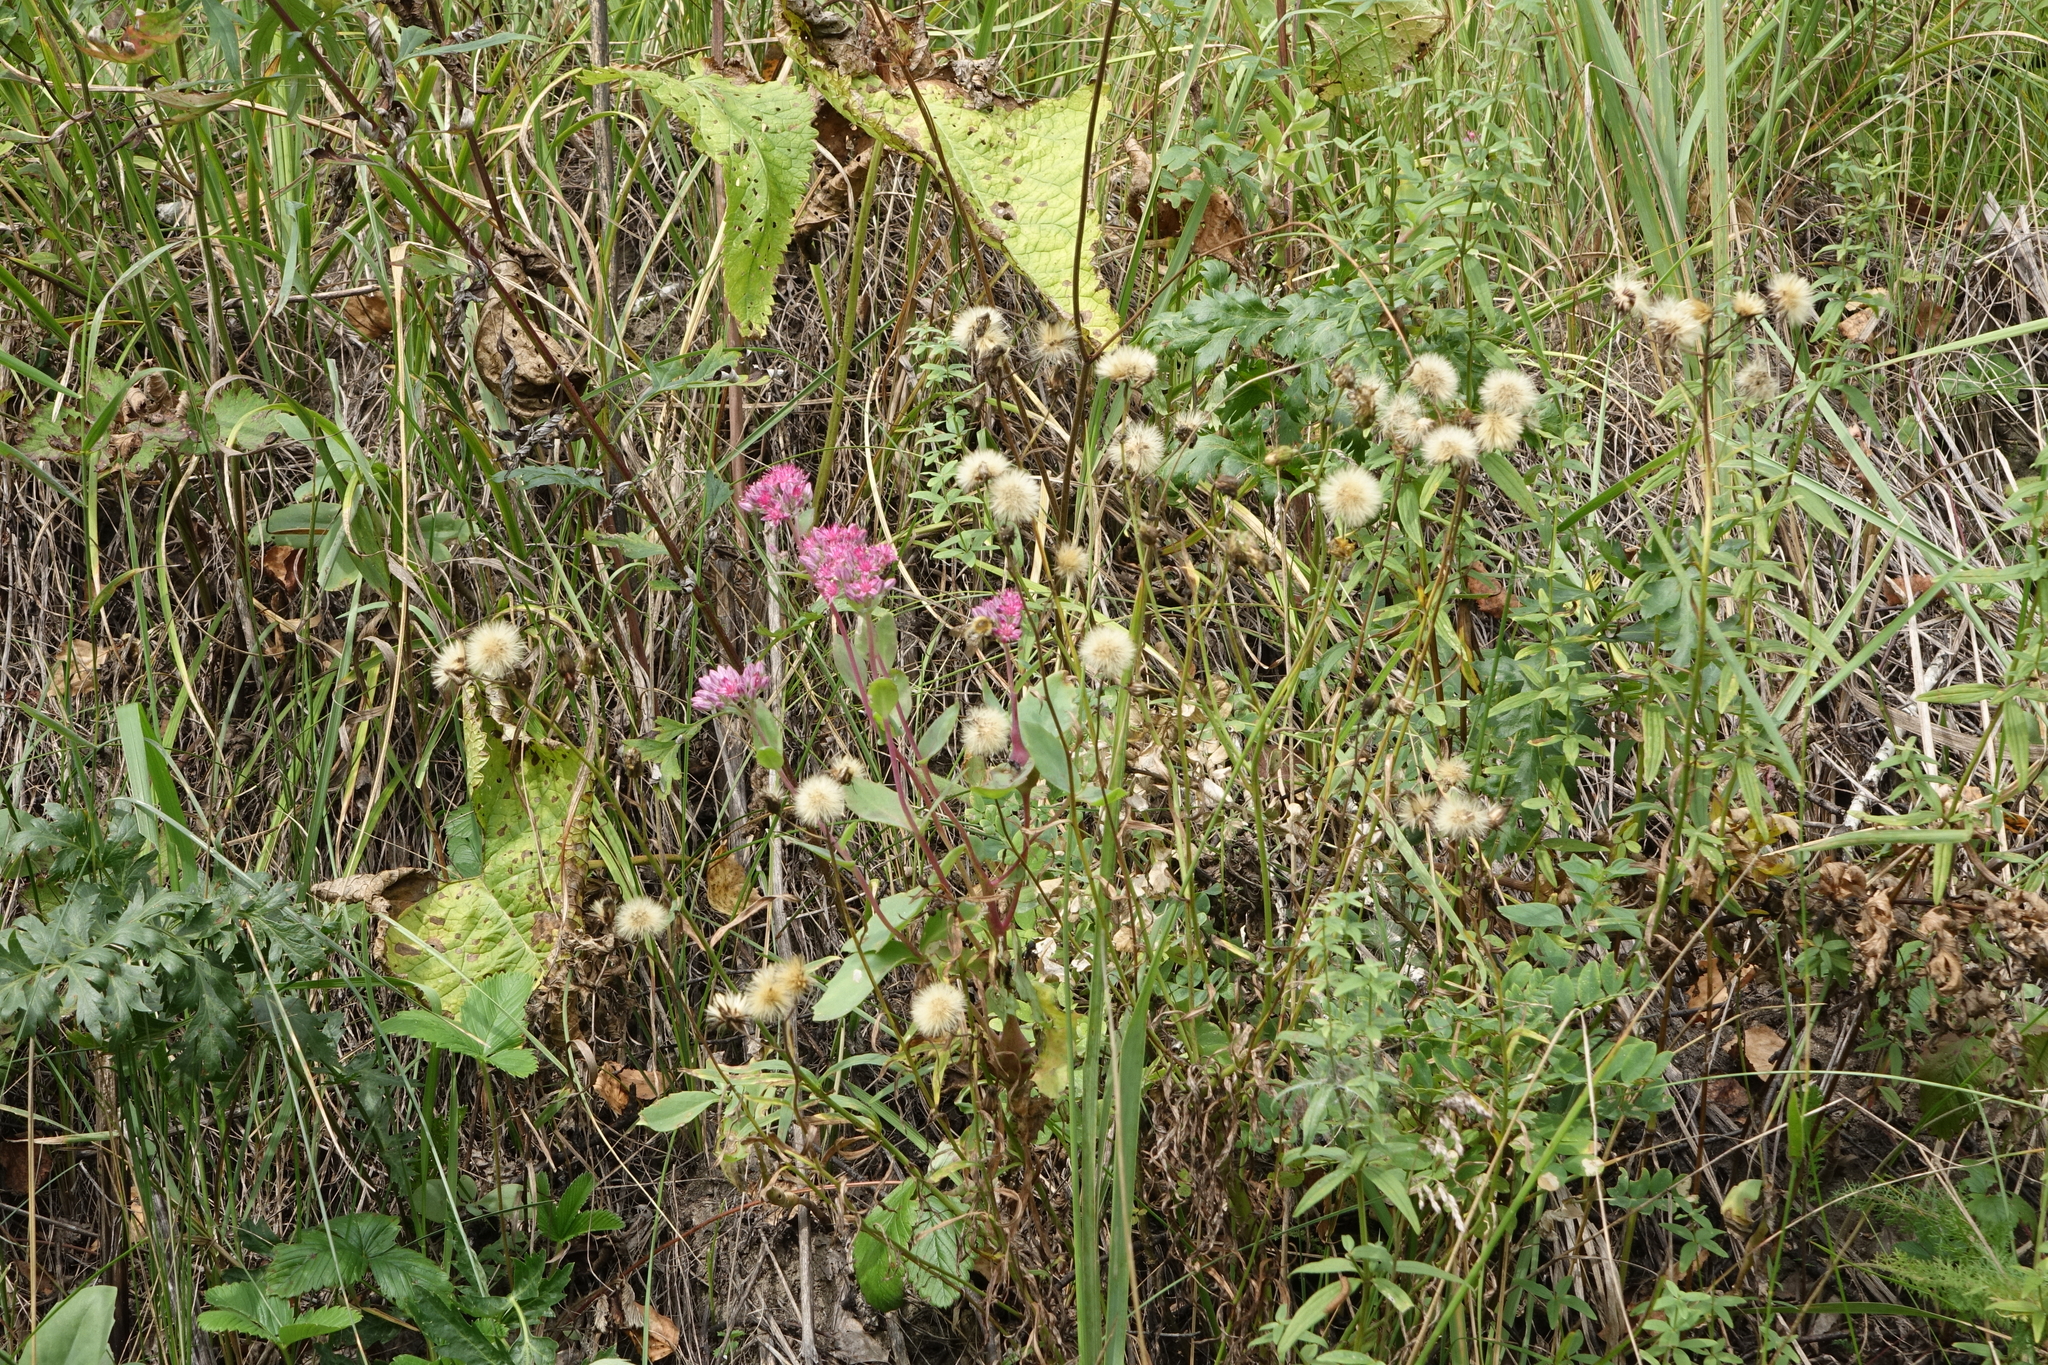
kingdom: Plantae
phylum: Tracheophyta
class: Magnoliopsida
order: Saxifragales
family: Crassulaceae
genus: Hylotelephium
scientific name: Hylotelephium telephium
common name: Live-forever
